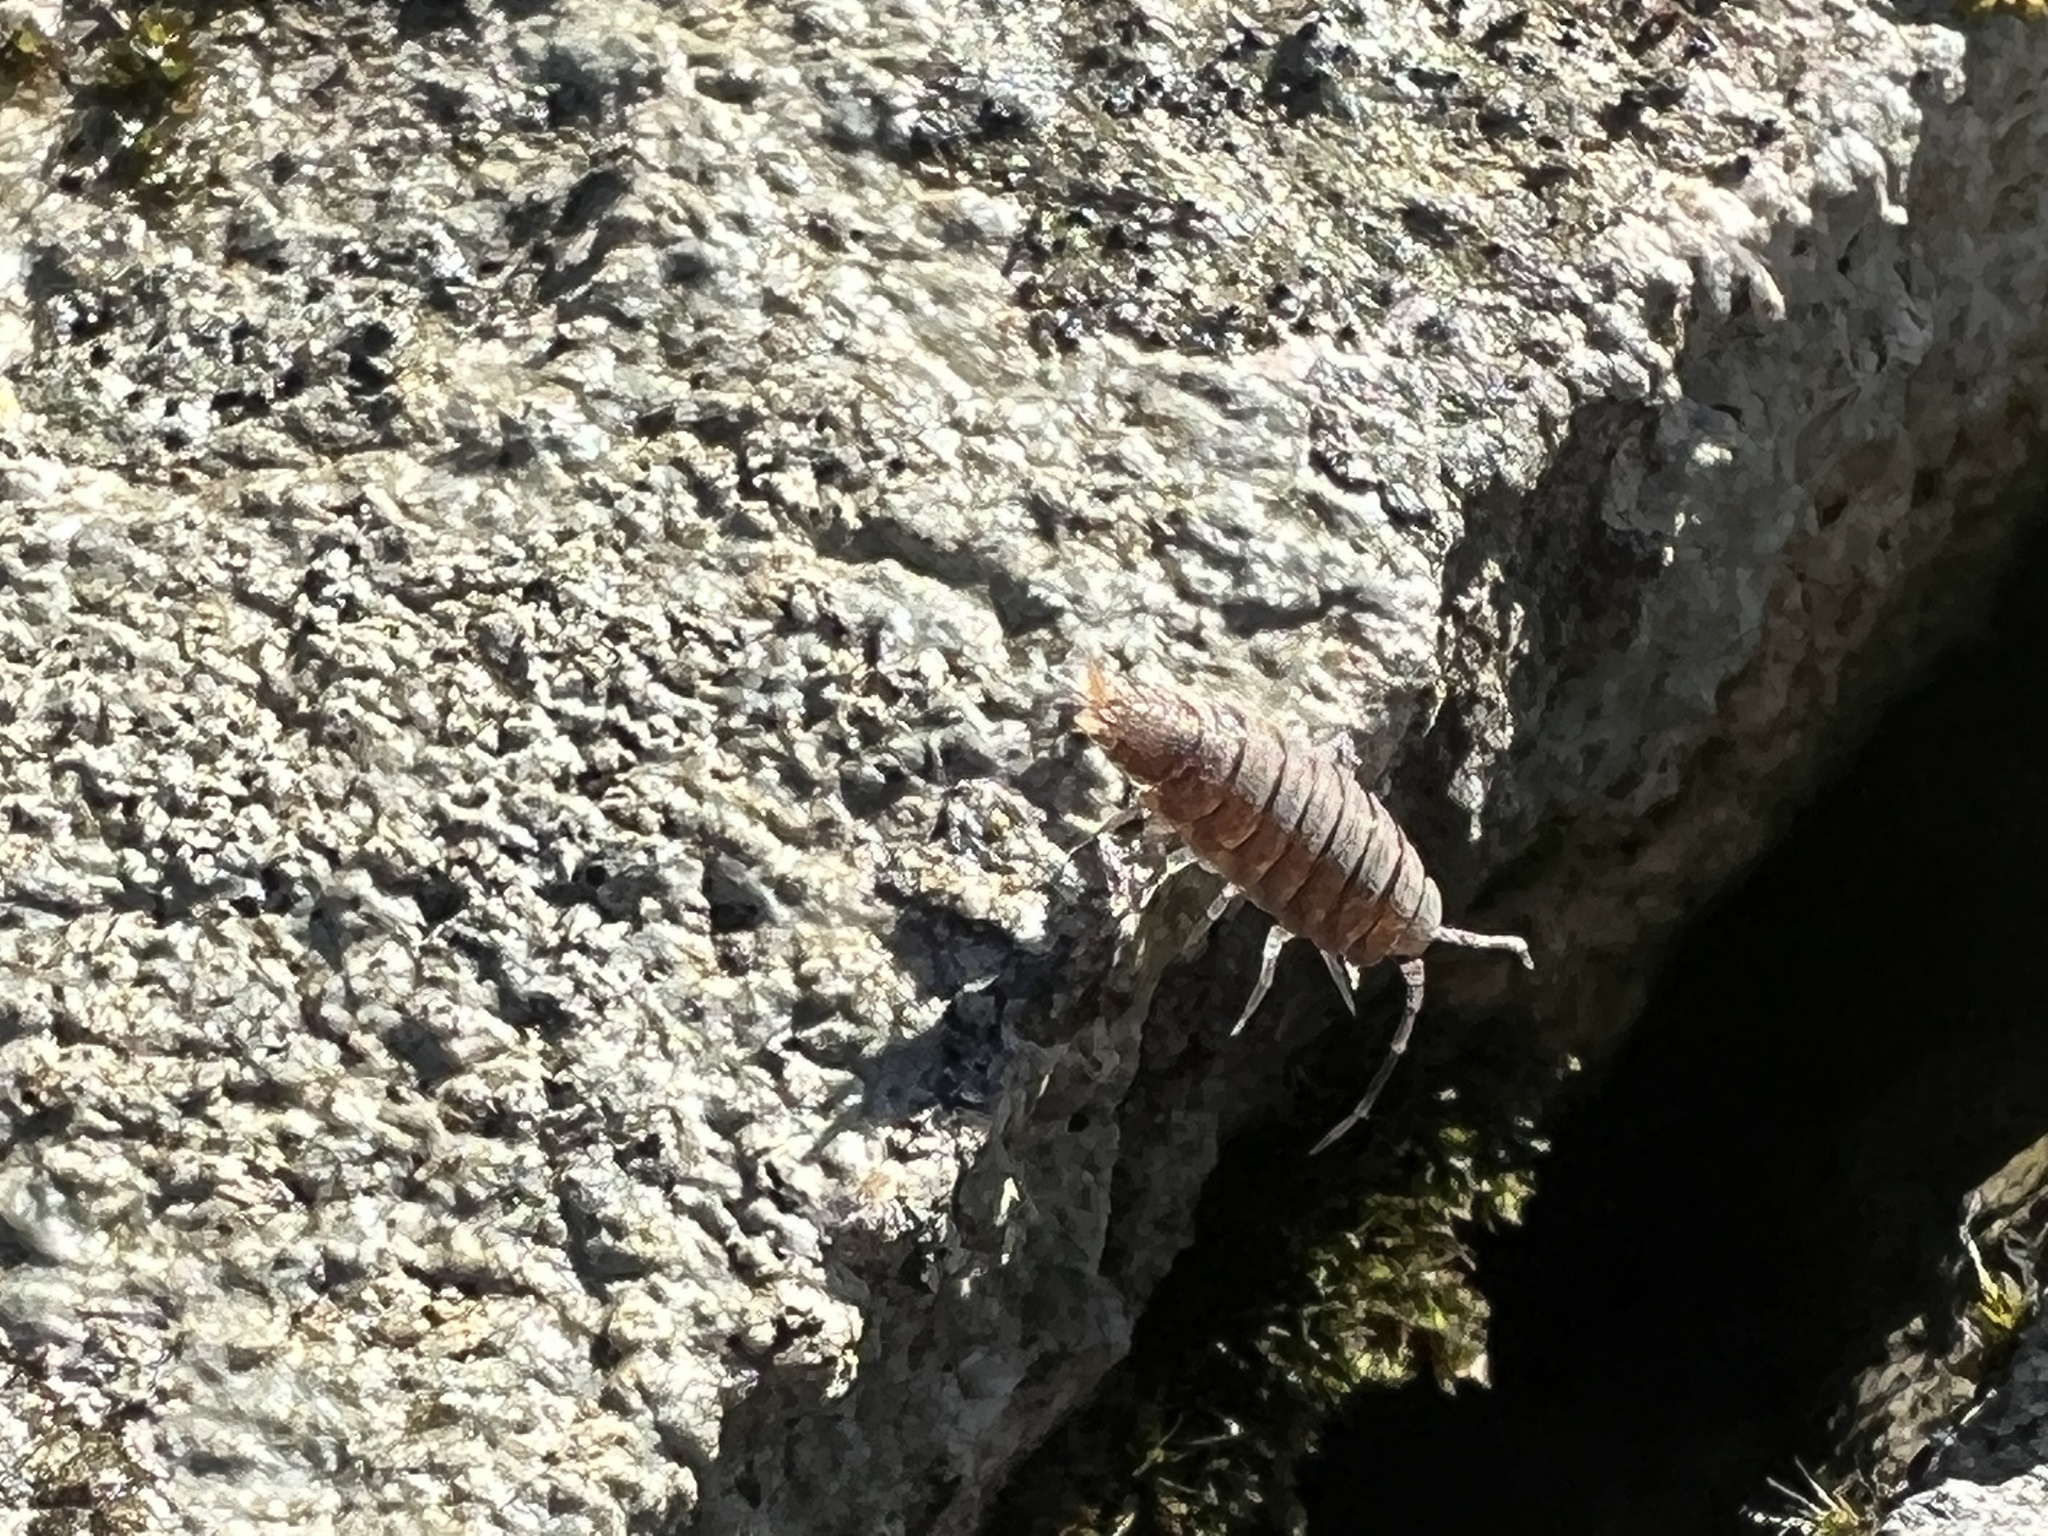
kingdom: Animalia
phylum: Arthropoda
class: Malacostraca
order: Isopoda
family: Porcellionidae
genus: Porcellionides
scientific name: Porcellionides pruinosus
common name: Plum woodlouse
